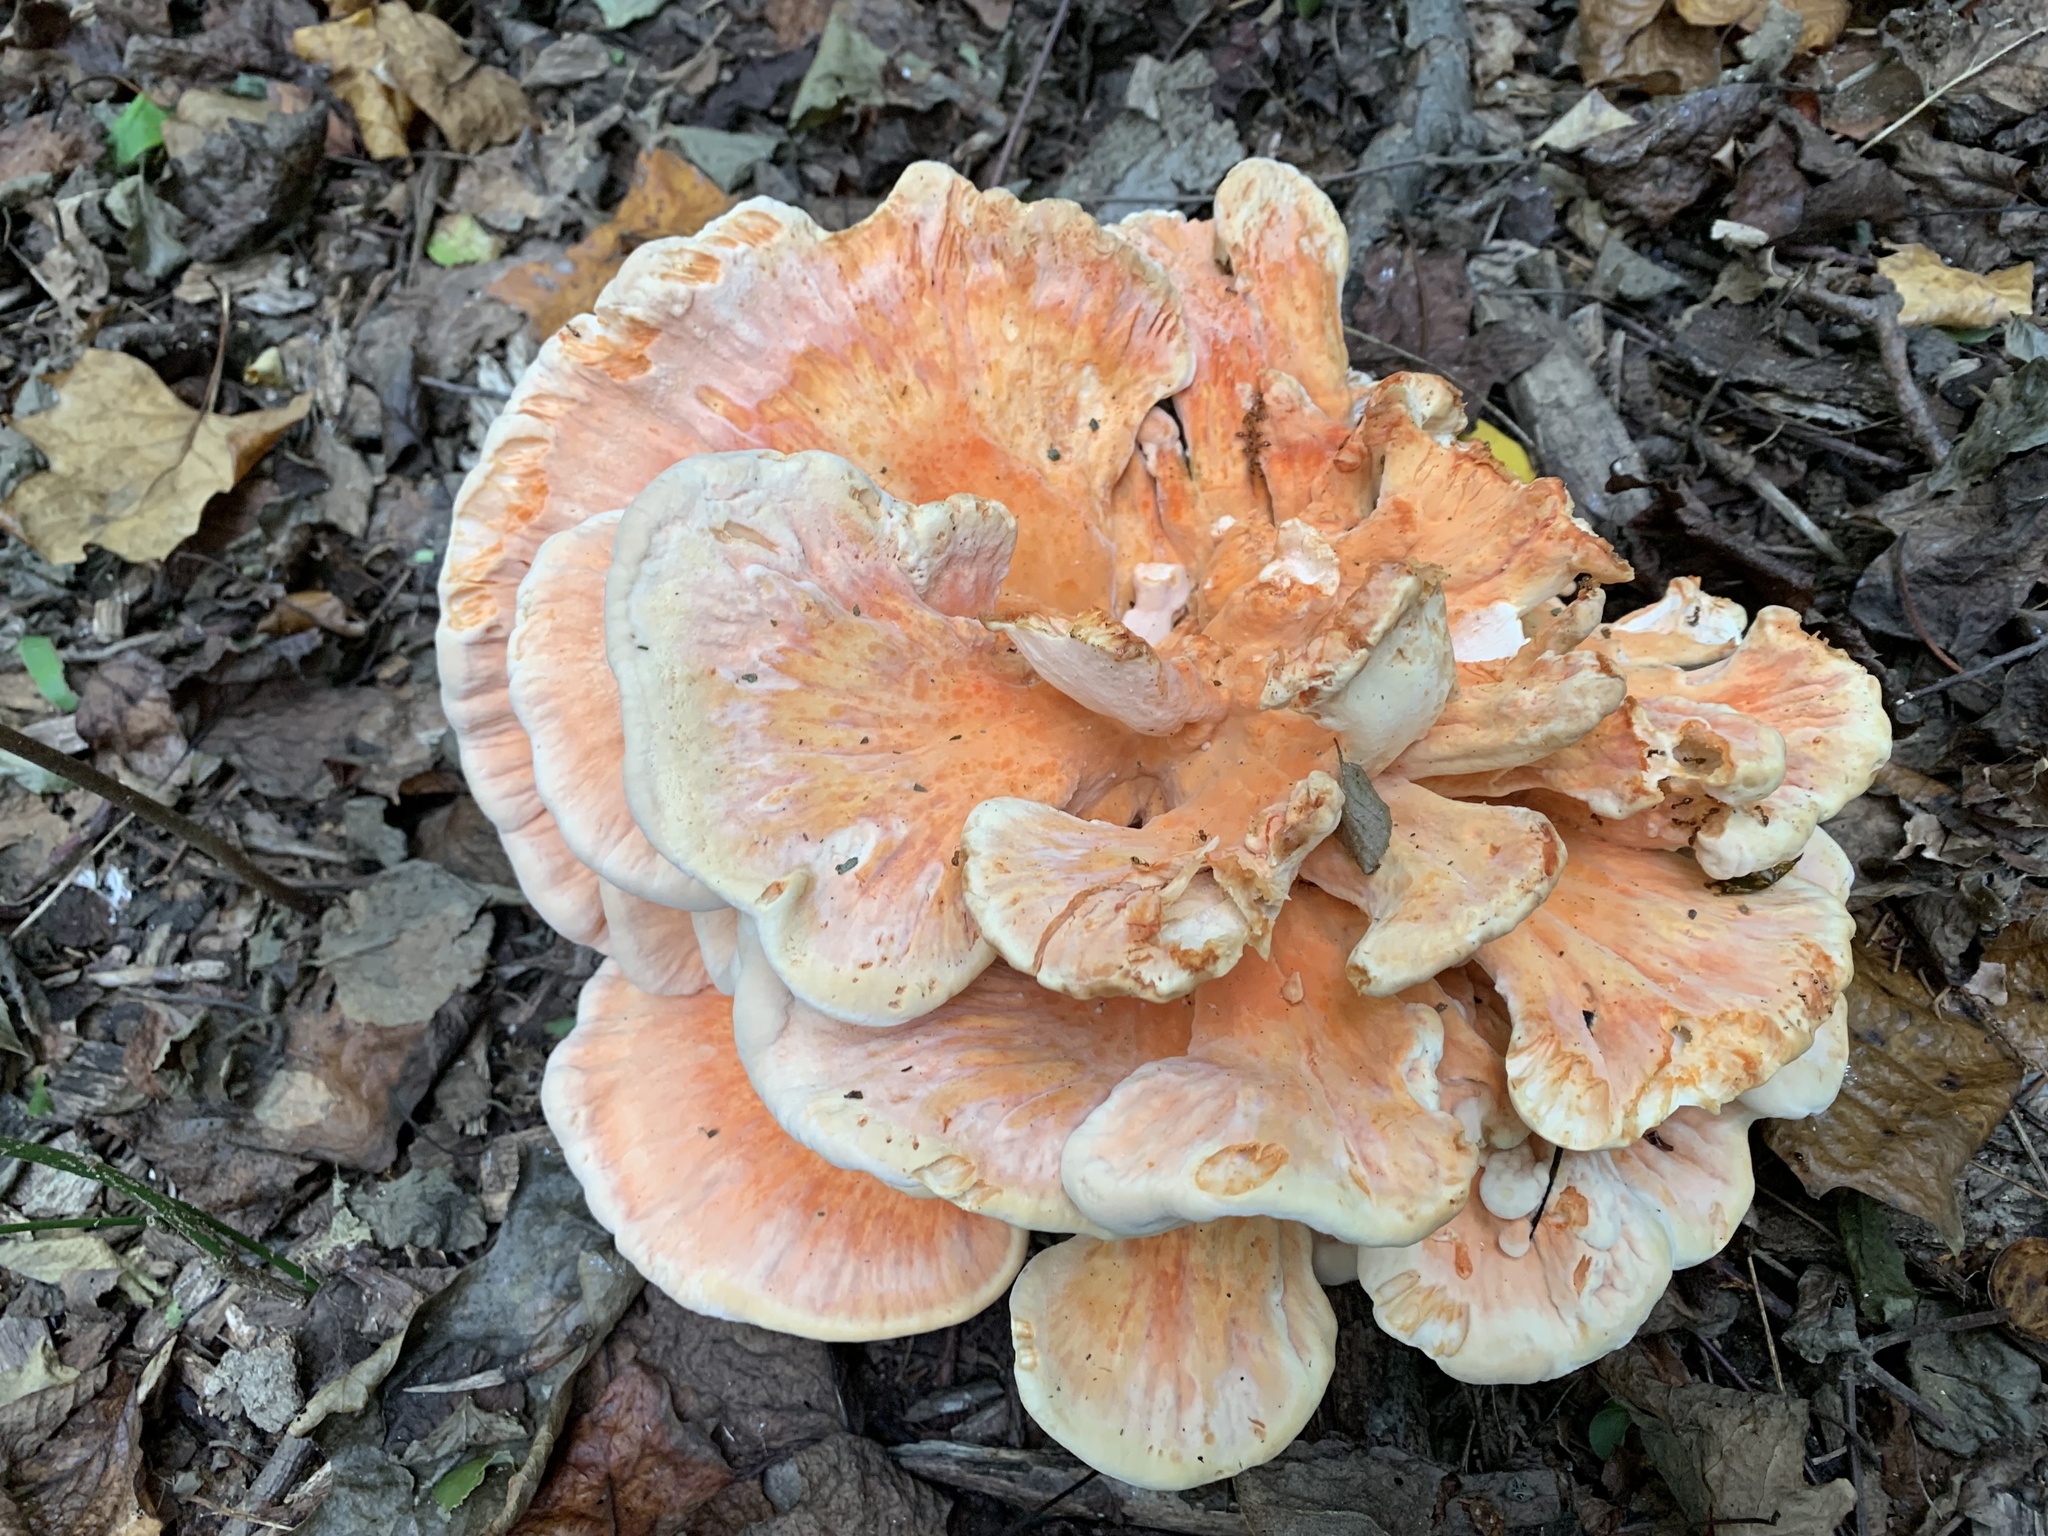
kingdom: Fungi
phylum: Basidiomycota
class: Agaricomycetes
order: Polyporales
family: Laetiporaceae
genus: Laetiporus
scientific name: Laetiporus sulphureus
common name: Chicken of the woods
